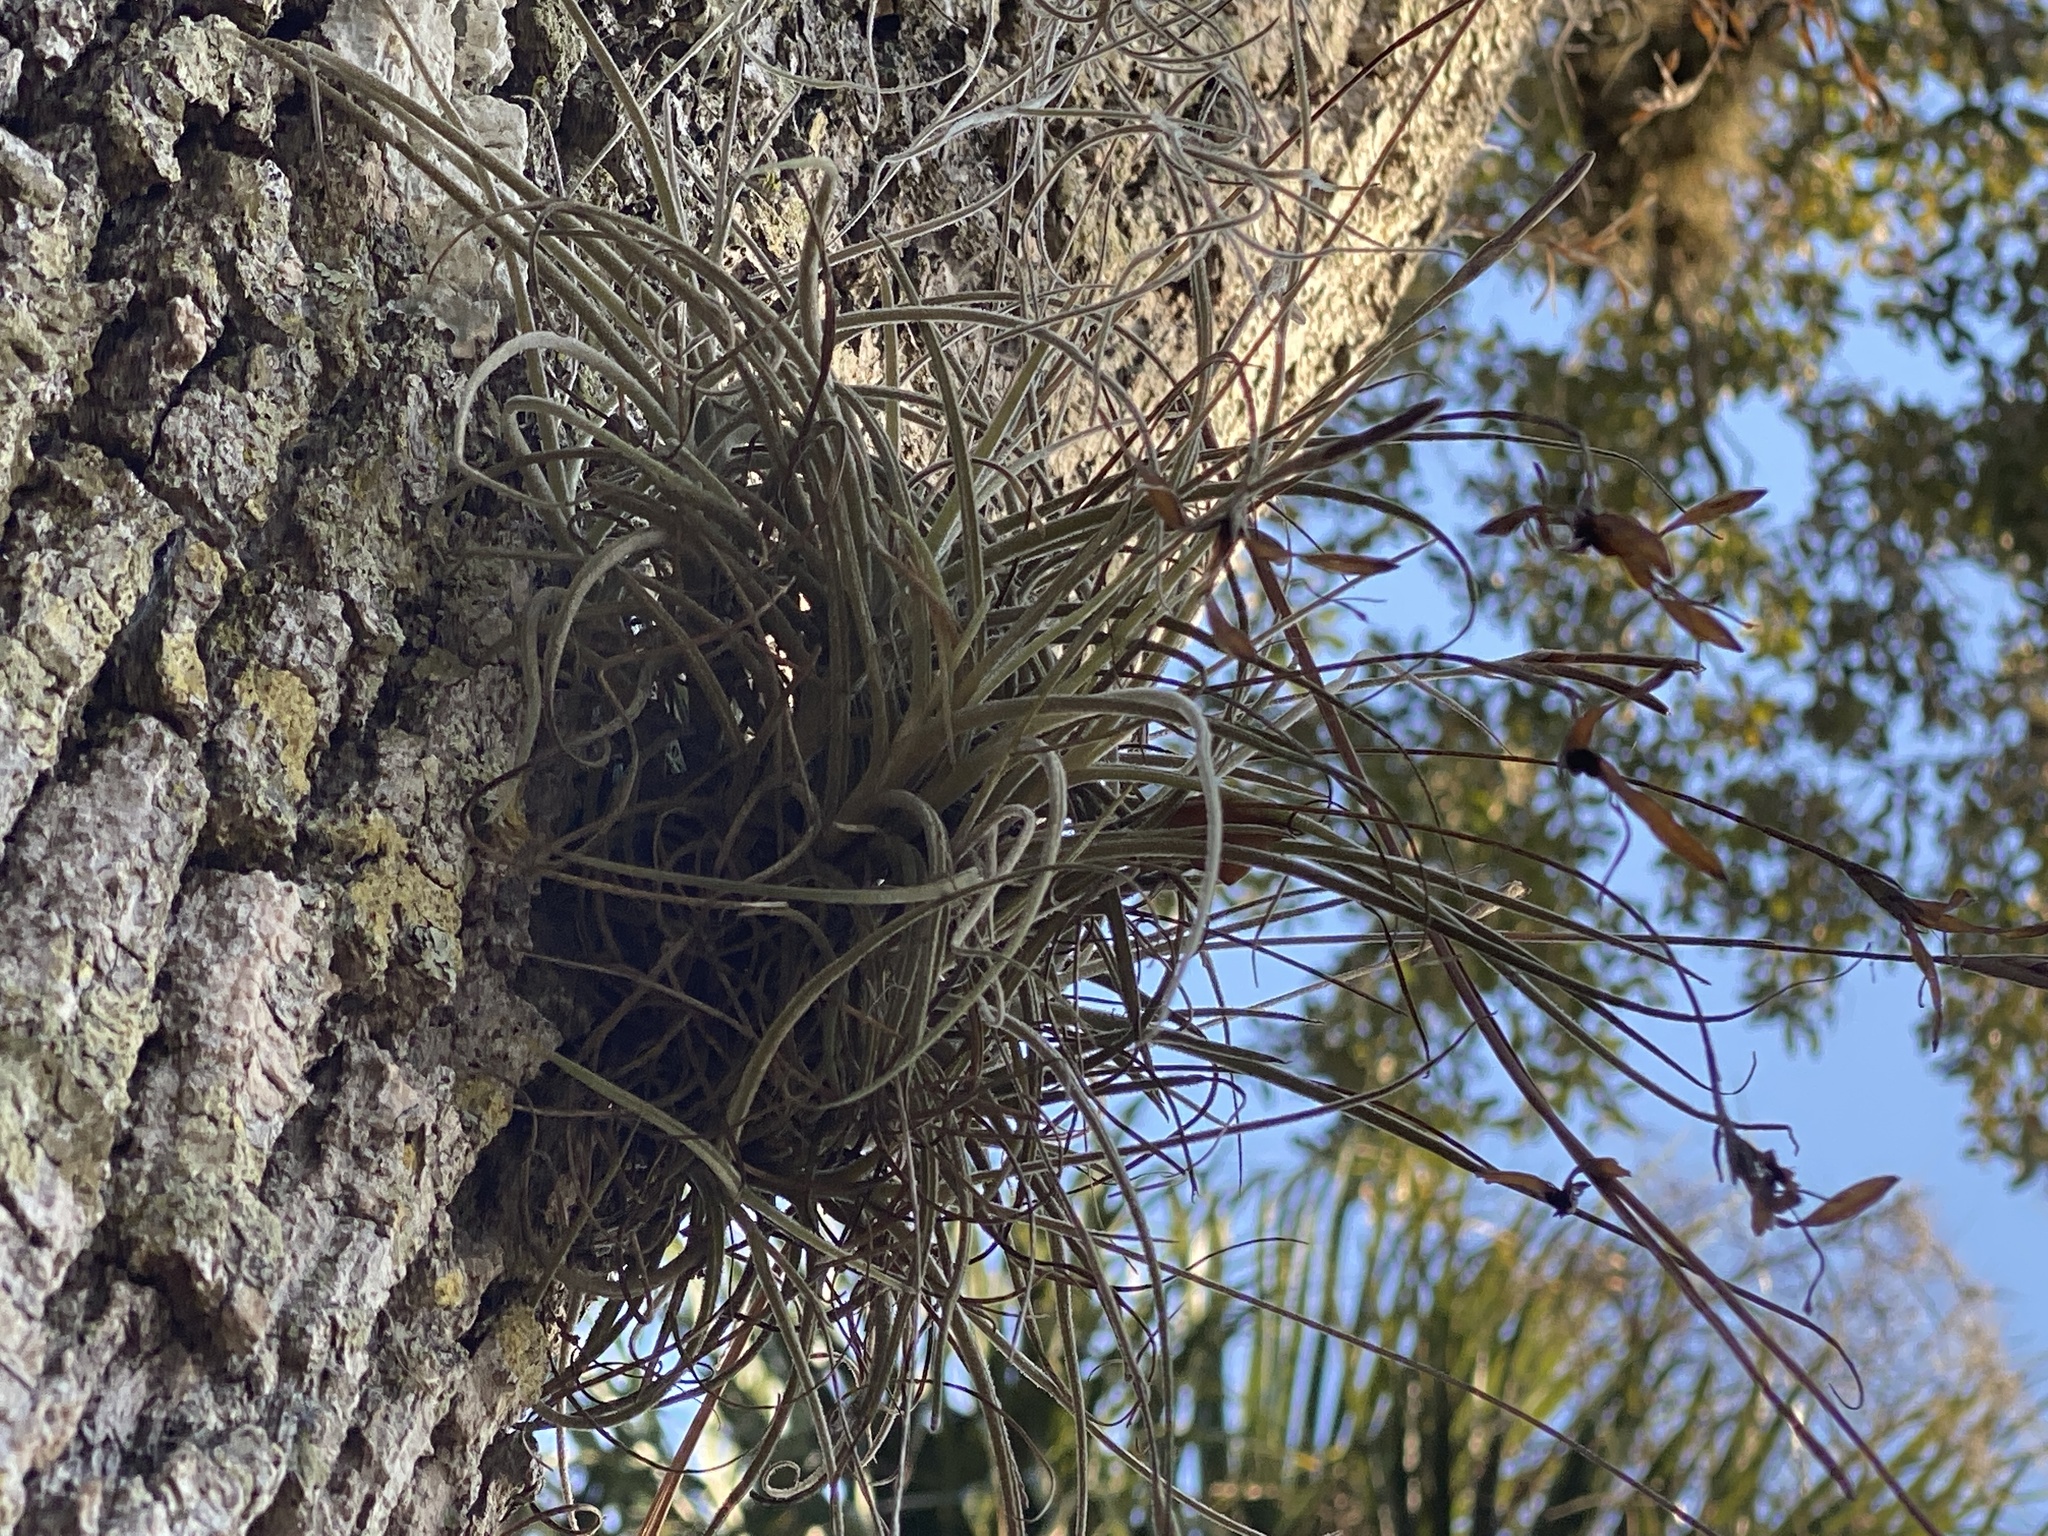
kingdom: Plantae
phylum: Tracheophyta
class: Liliopsida
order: Poales
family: Bromeliaceae
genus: Tillandsia
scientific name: Tillandsia recurvata
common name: Small ballmoss
